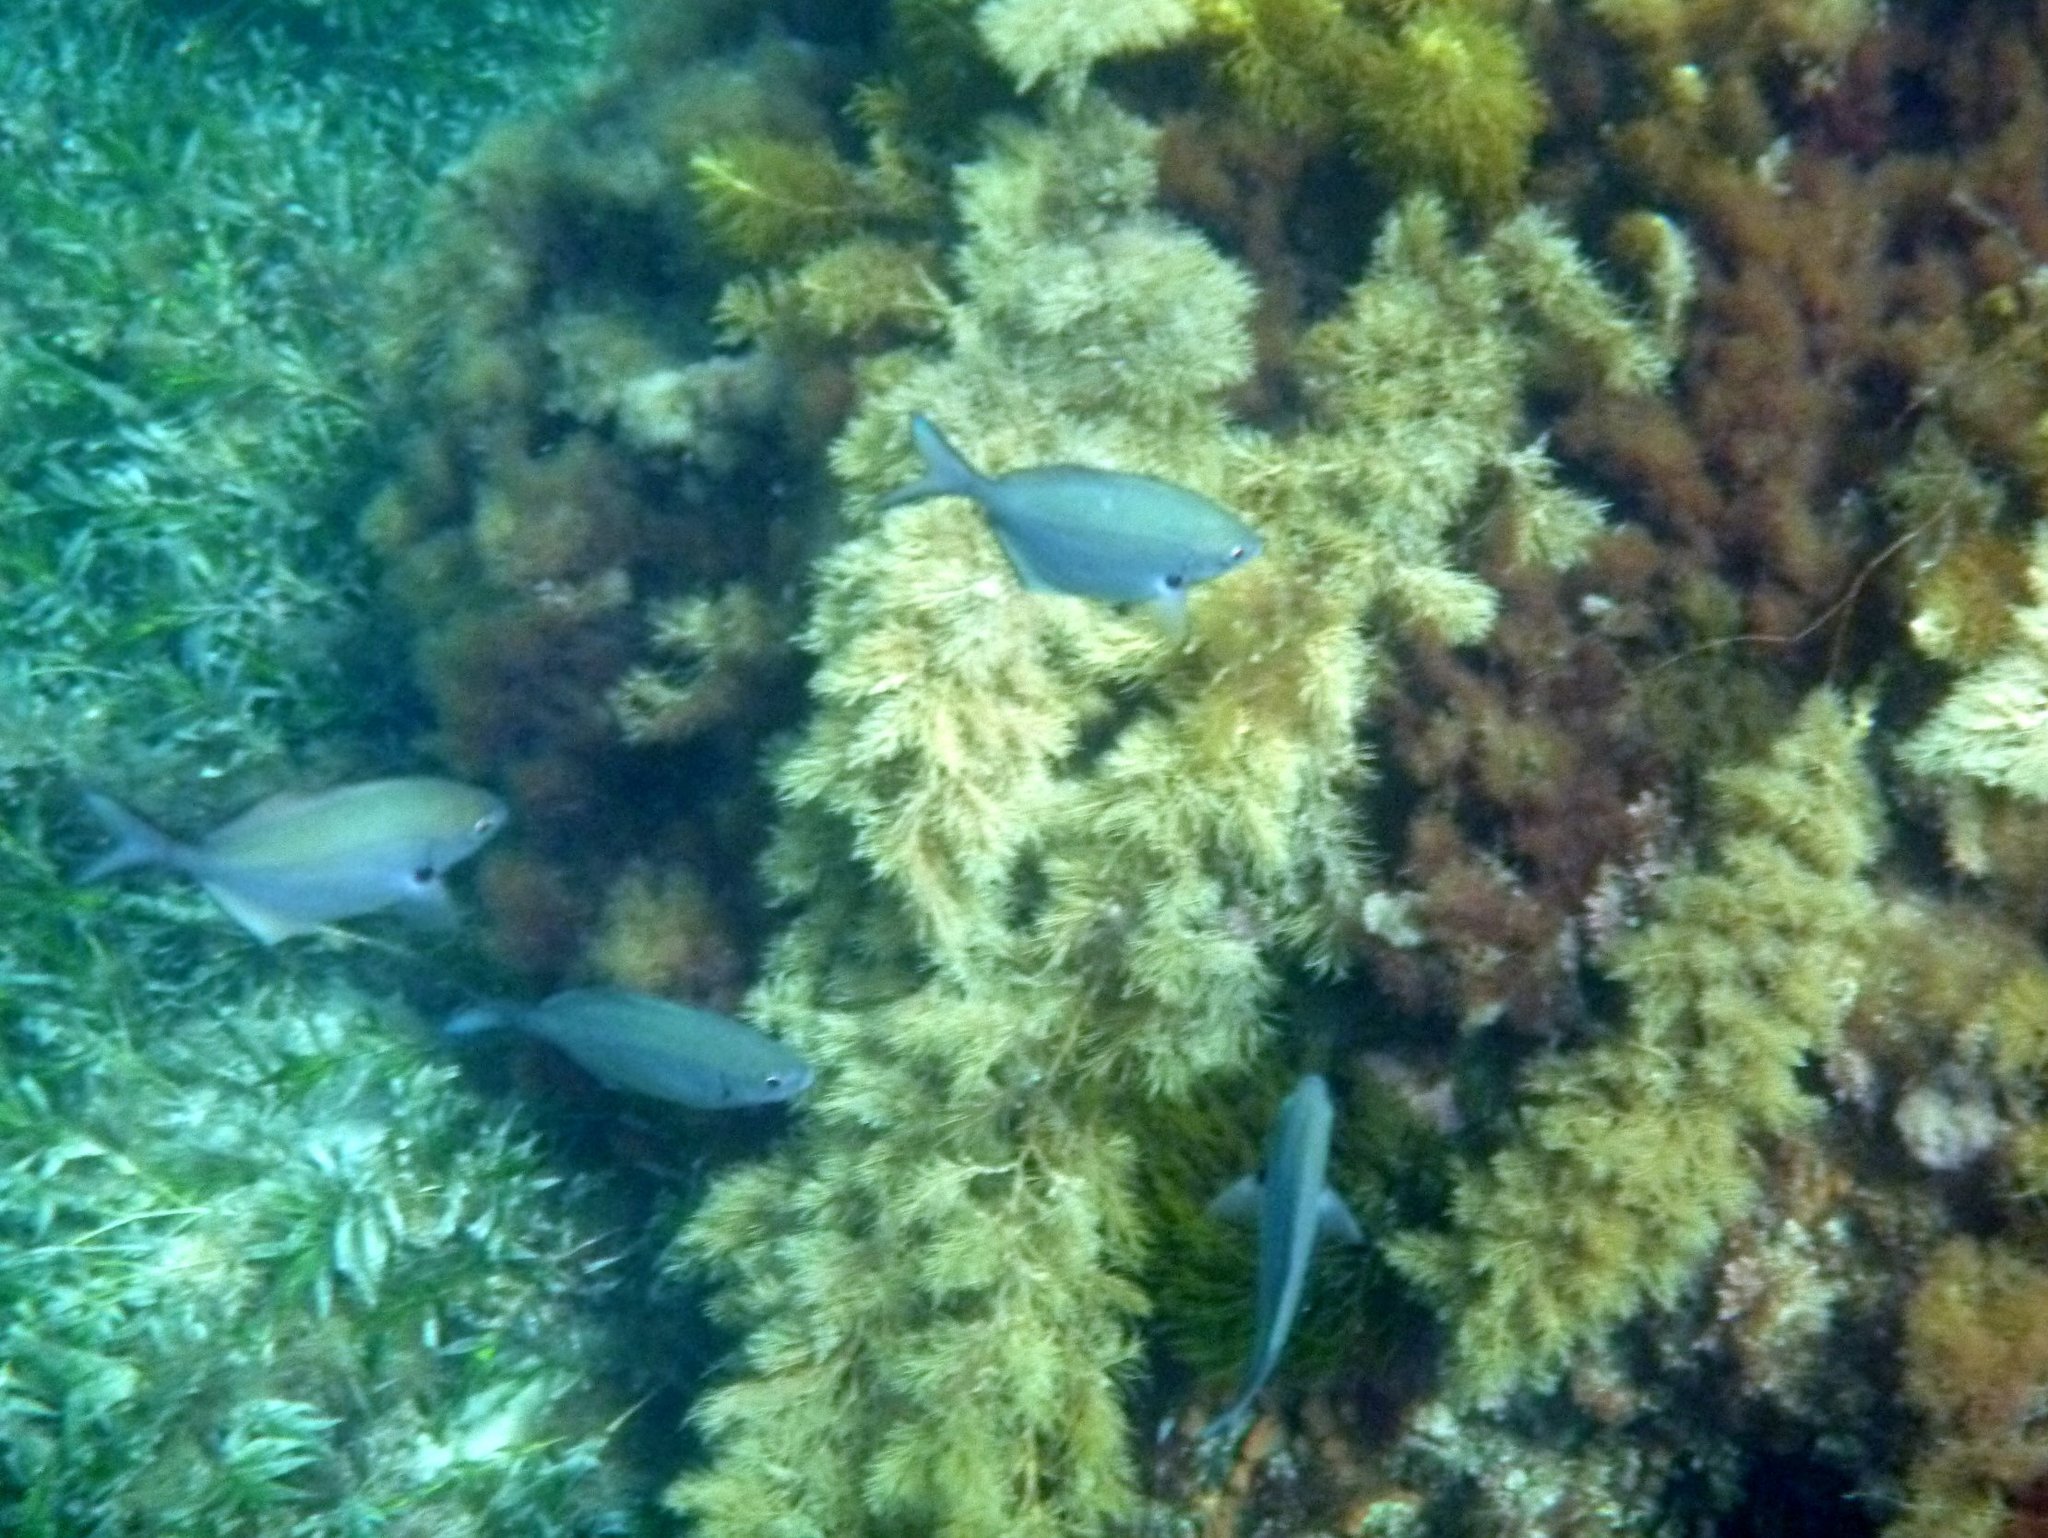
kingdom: Animalia
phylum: Chordata
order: Perciformes
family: Kyphosidae
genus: Scorpis
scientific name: Scorpis lineolata
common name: Sweep
